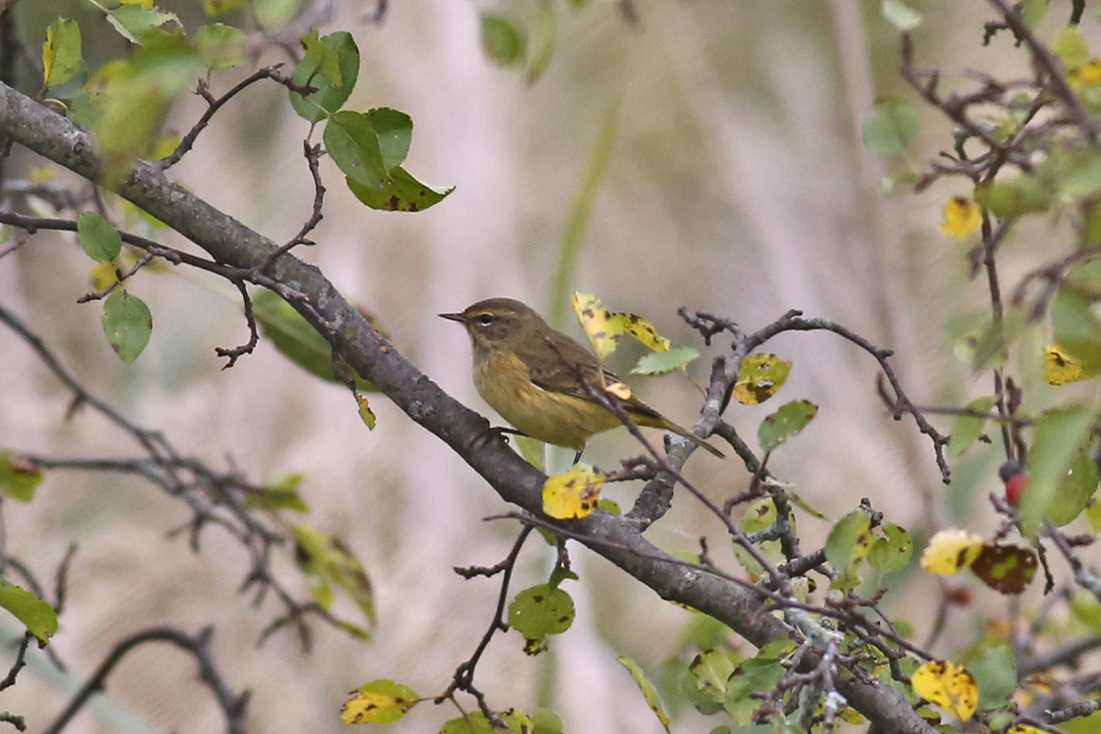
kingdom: Animalia
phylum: Chordata
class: Aves
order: Passeriformes
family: Parulidae
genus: Setophaga
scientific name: Setophaga palmarum
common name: Palm warbler
